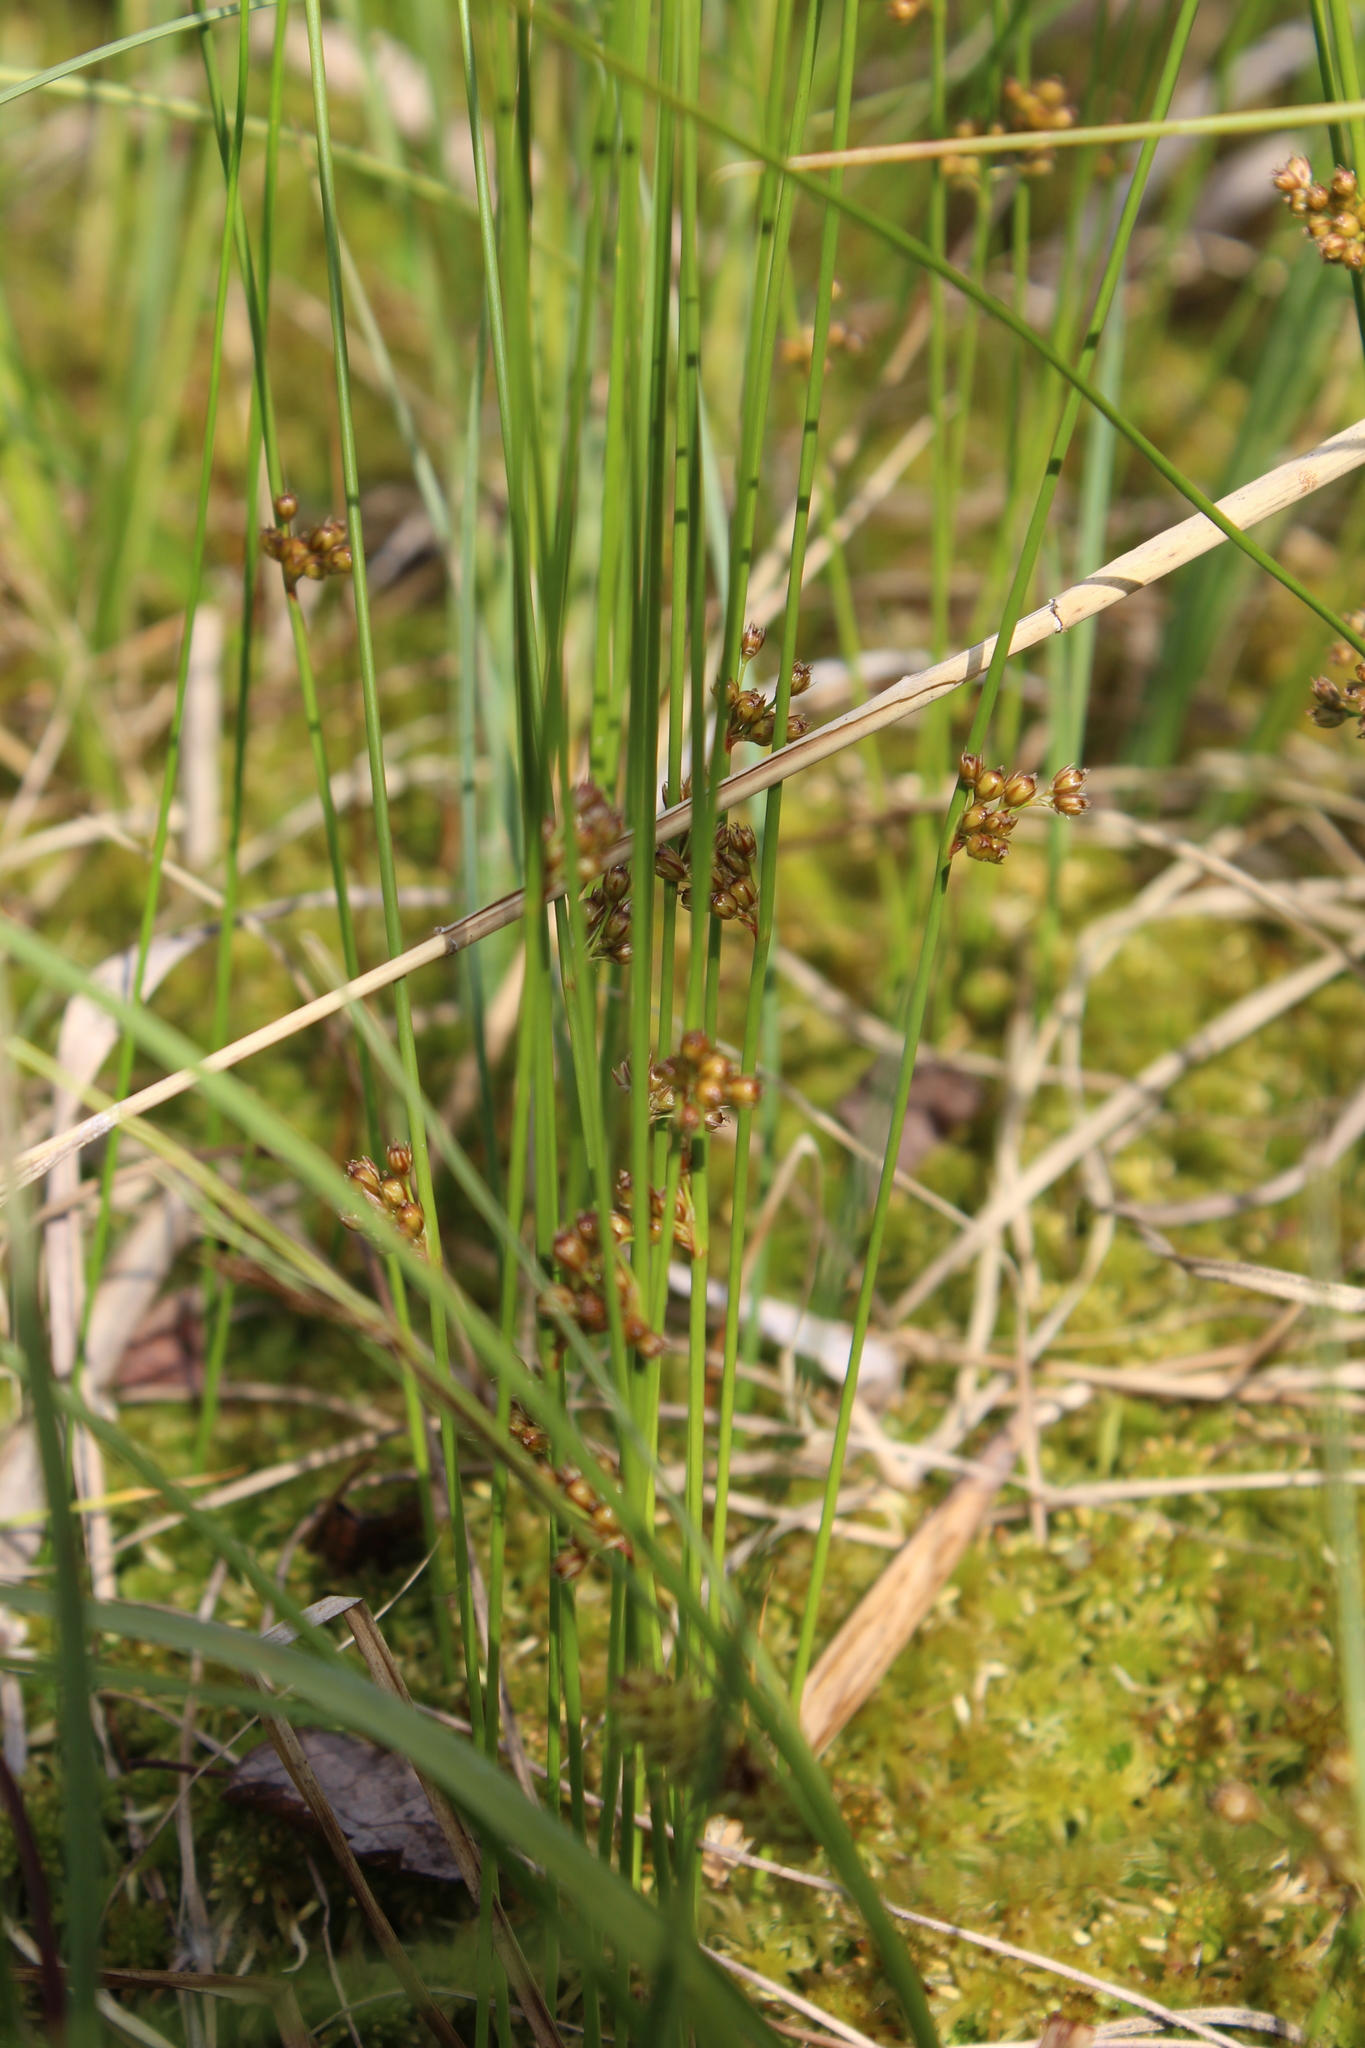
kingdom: Plantae
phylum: Tracheophyta
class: Liliopsida
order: Poales
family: Juncaceae
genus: Juncus
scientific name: Juncus filiformis
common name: Thread rush
